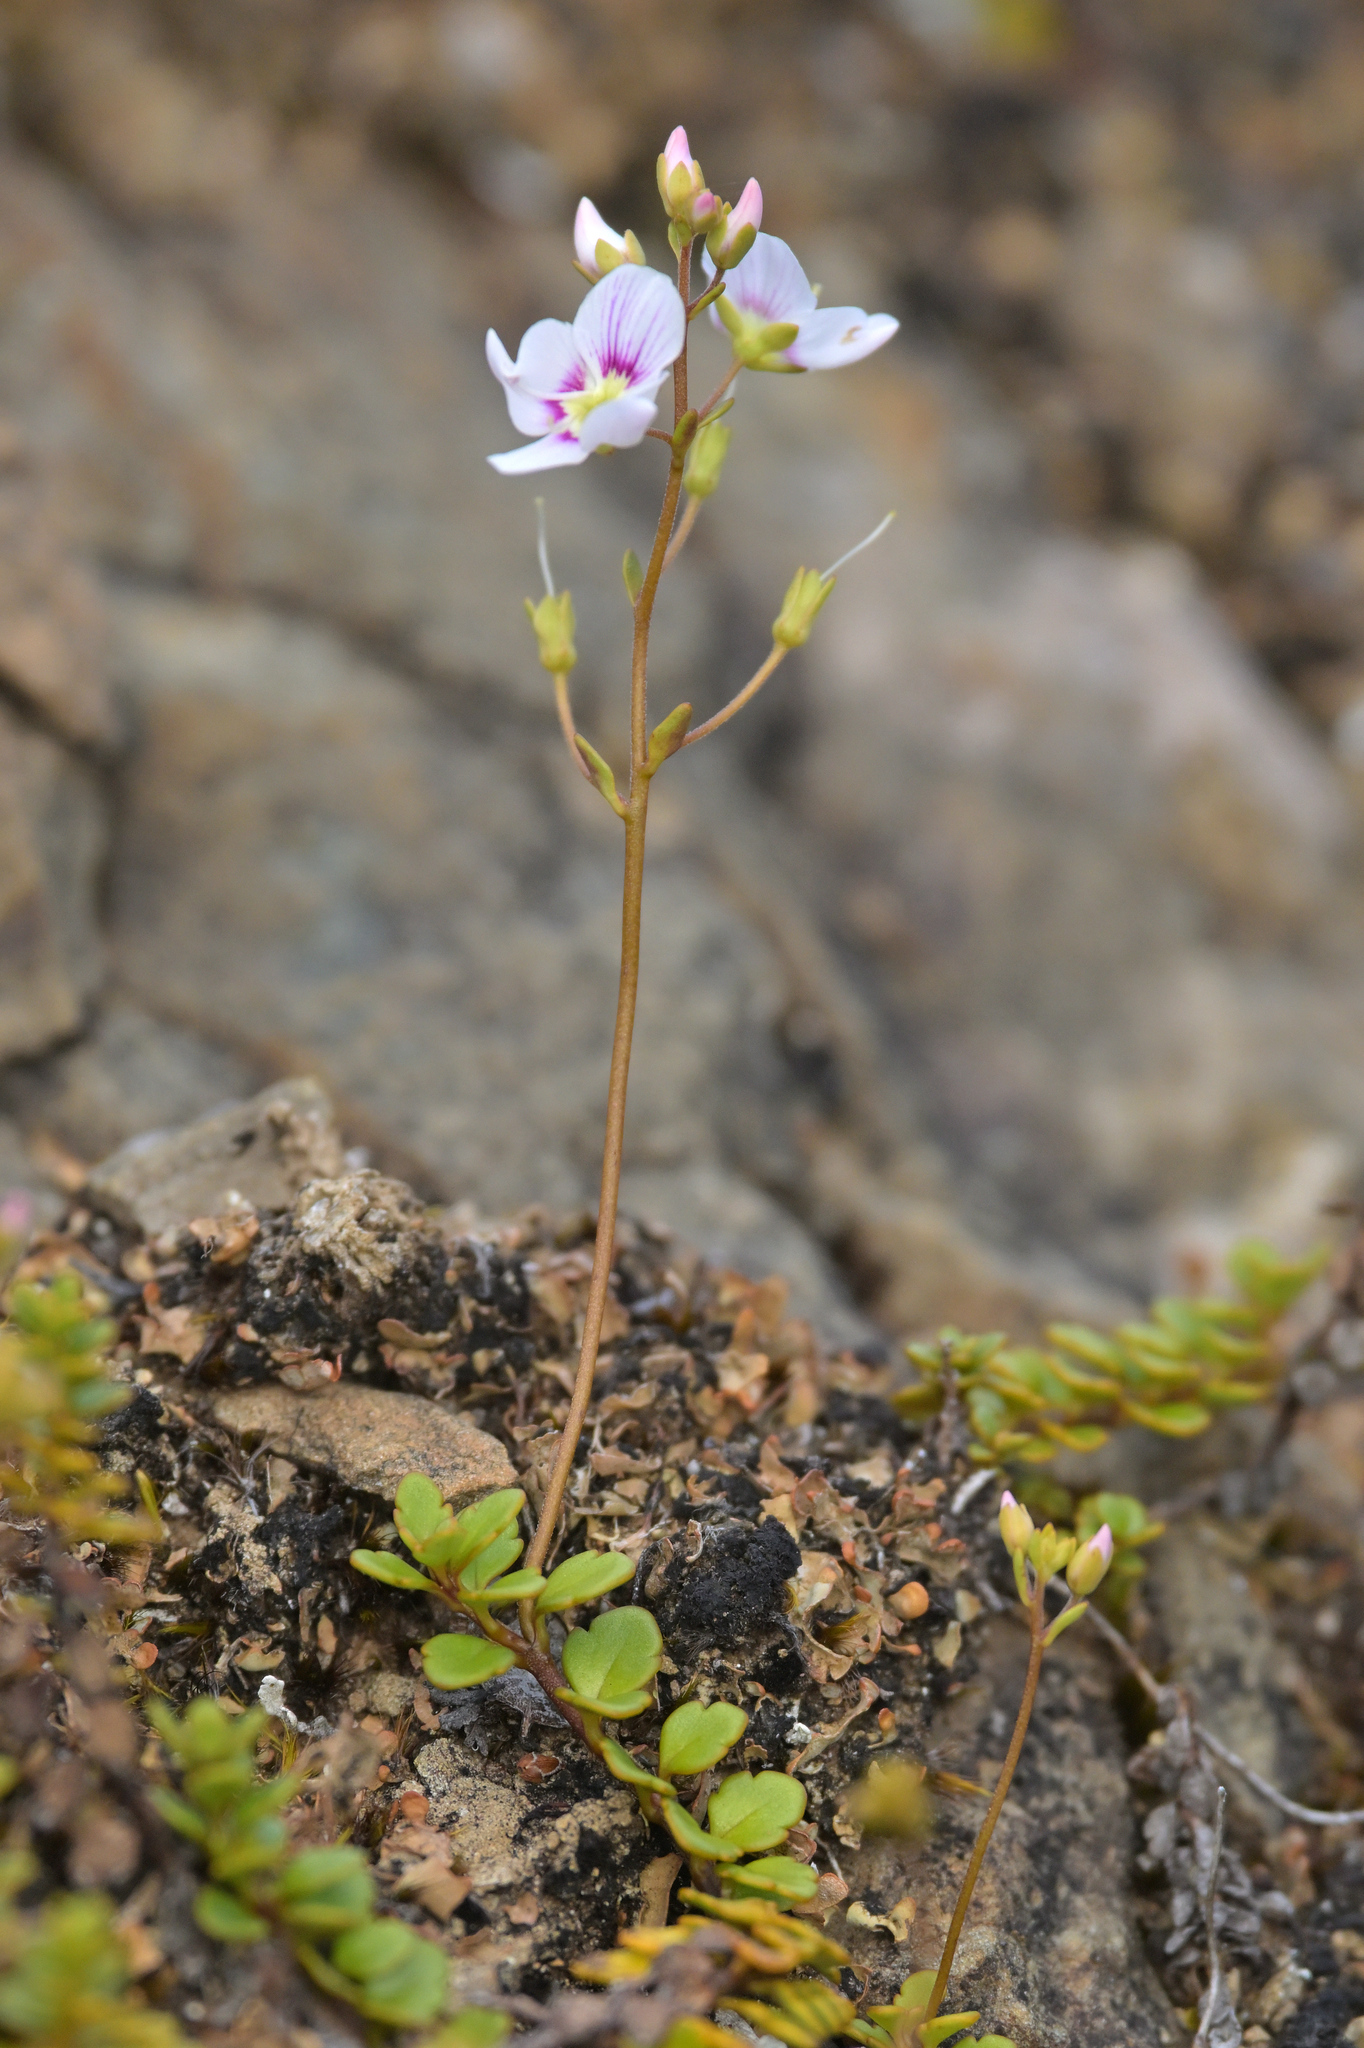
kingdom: Plantae
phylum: Tracheophyta
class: Magnoliopsida
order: Lamiales
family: Plantaginaceae
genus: Veronica
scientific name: Veronica lyallii
